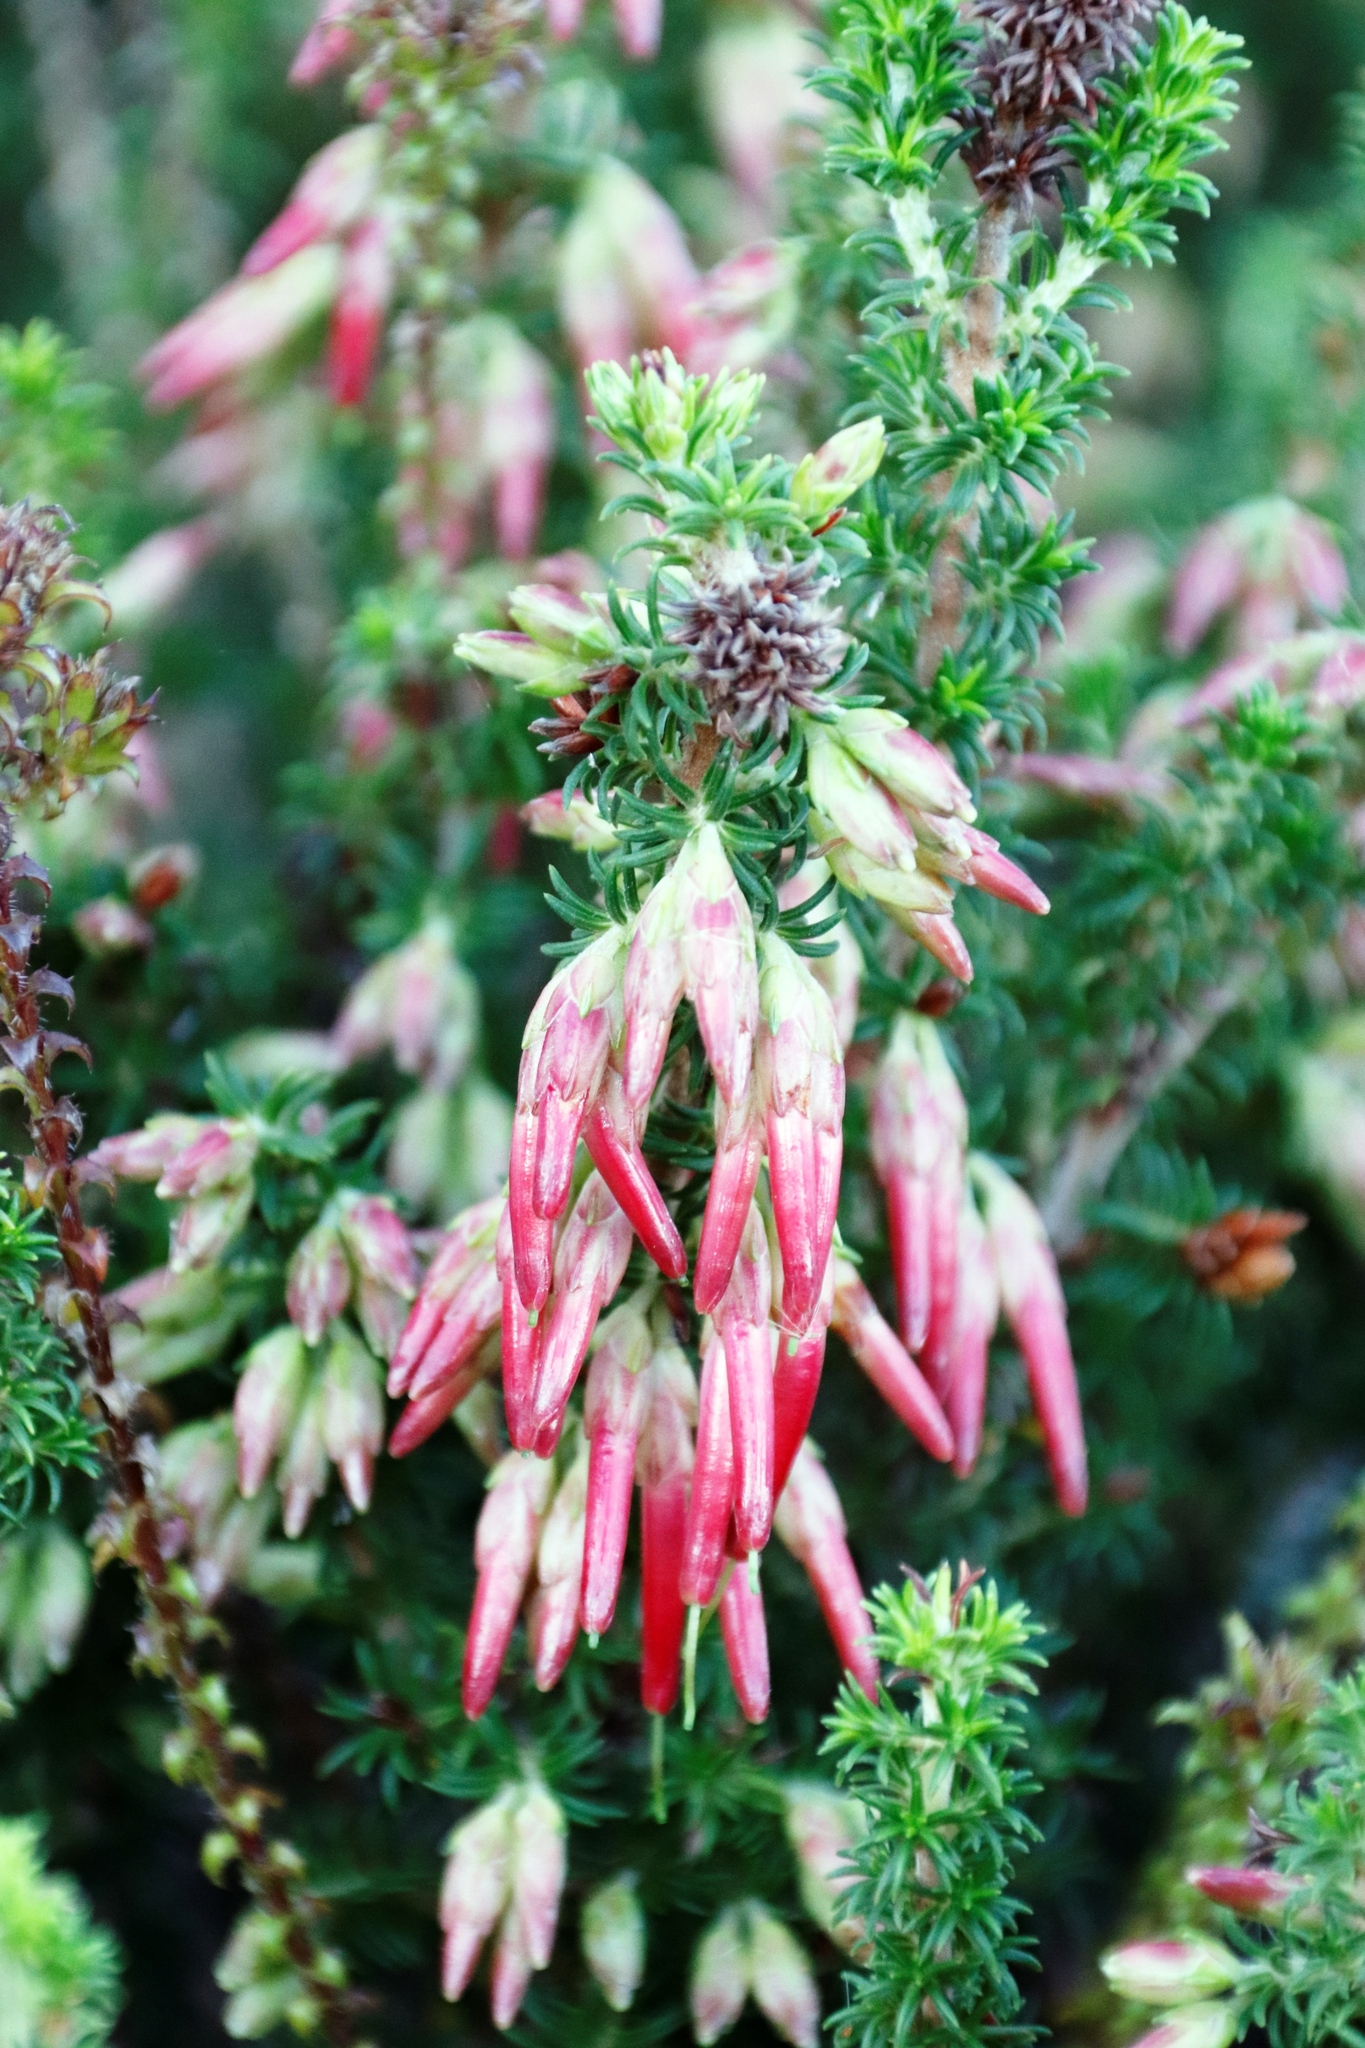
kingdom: Plantae
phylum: Tracheophyta
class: Magnoliopsida
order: Ericales
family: Ericaceae
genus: Erica
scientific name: Erica coccinea
